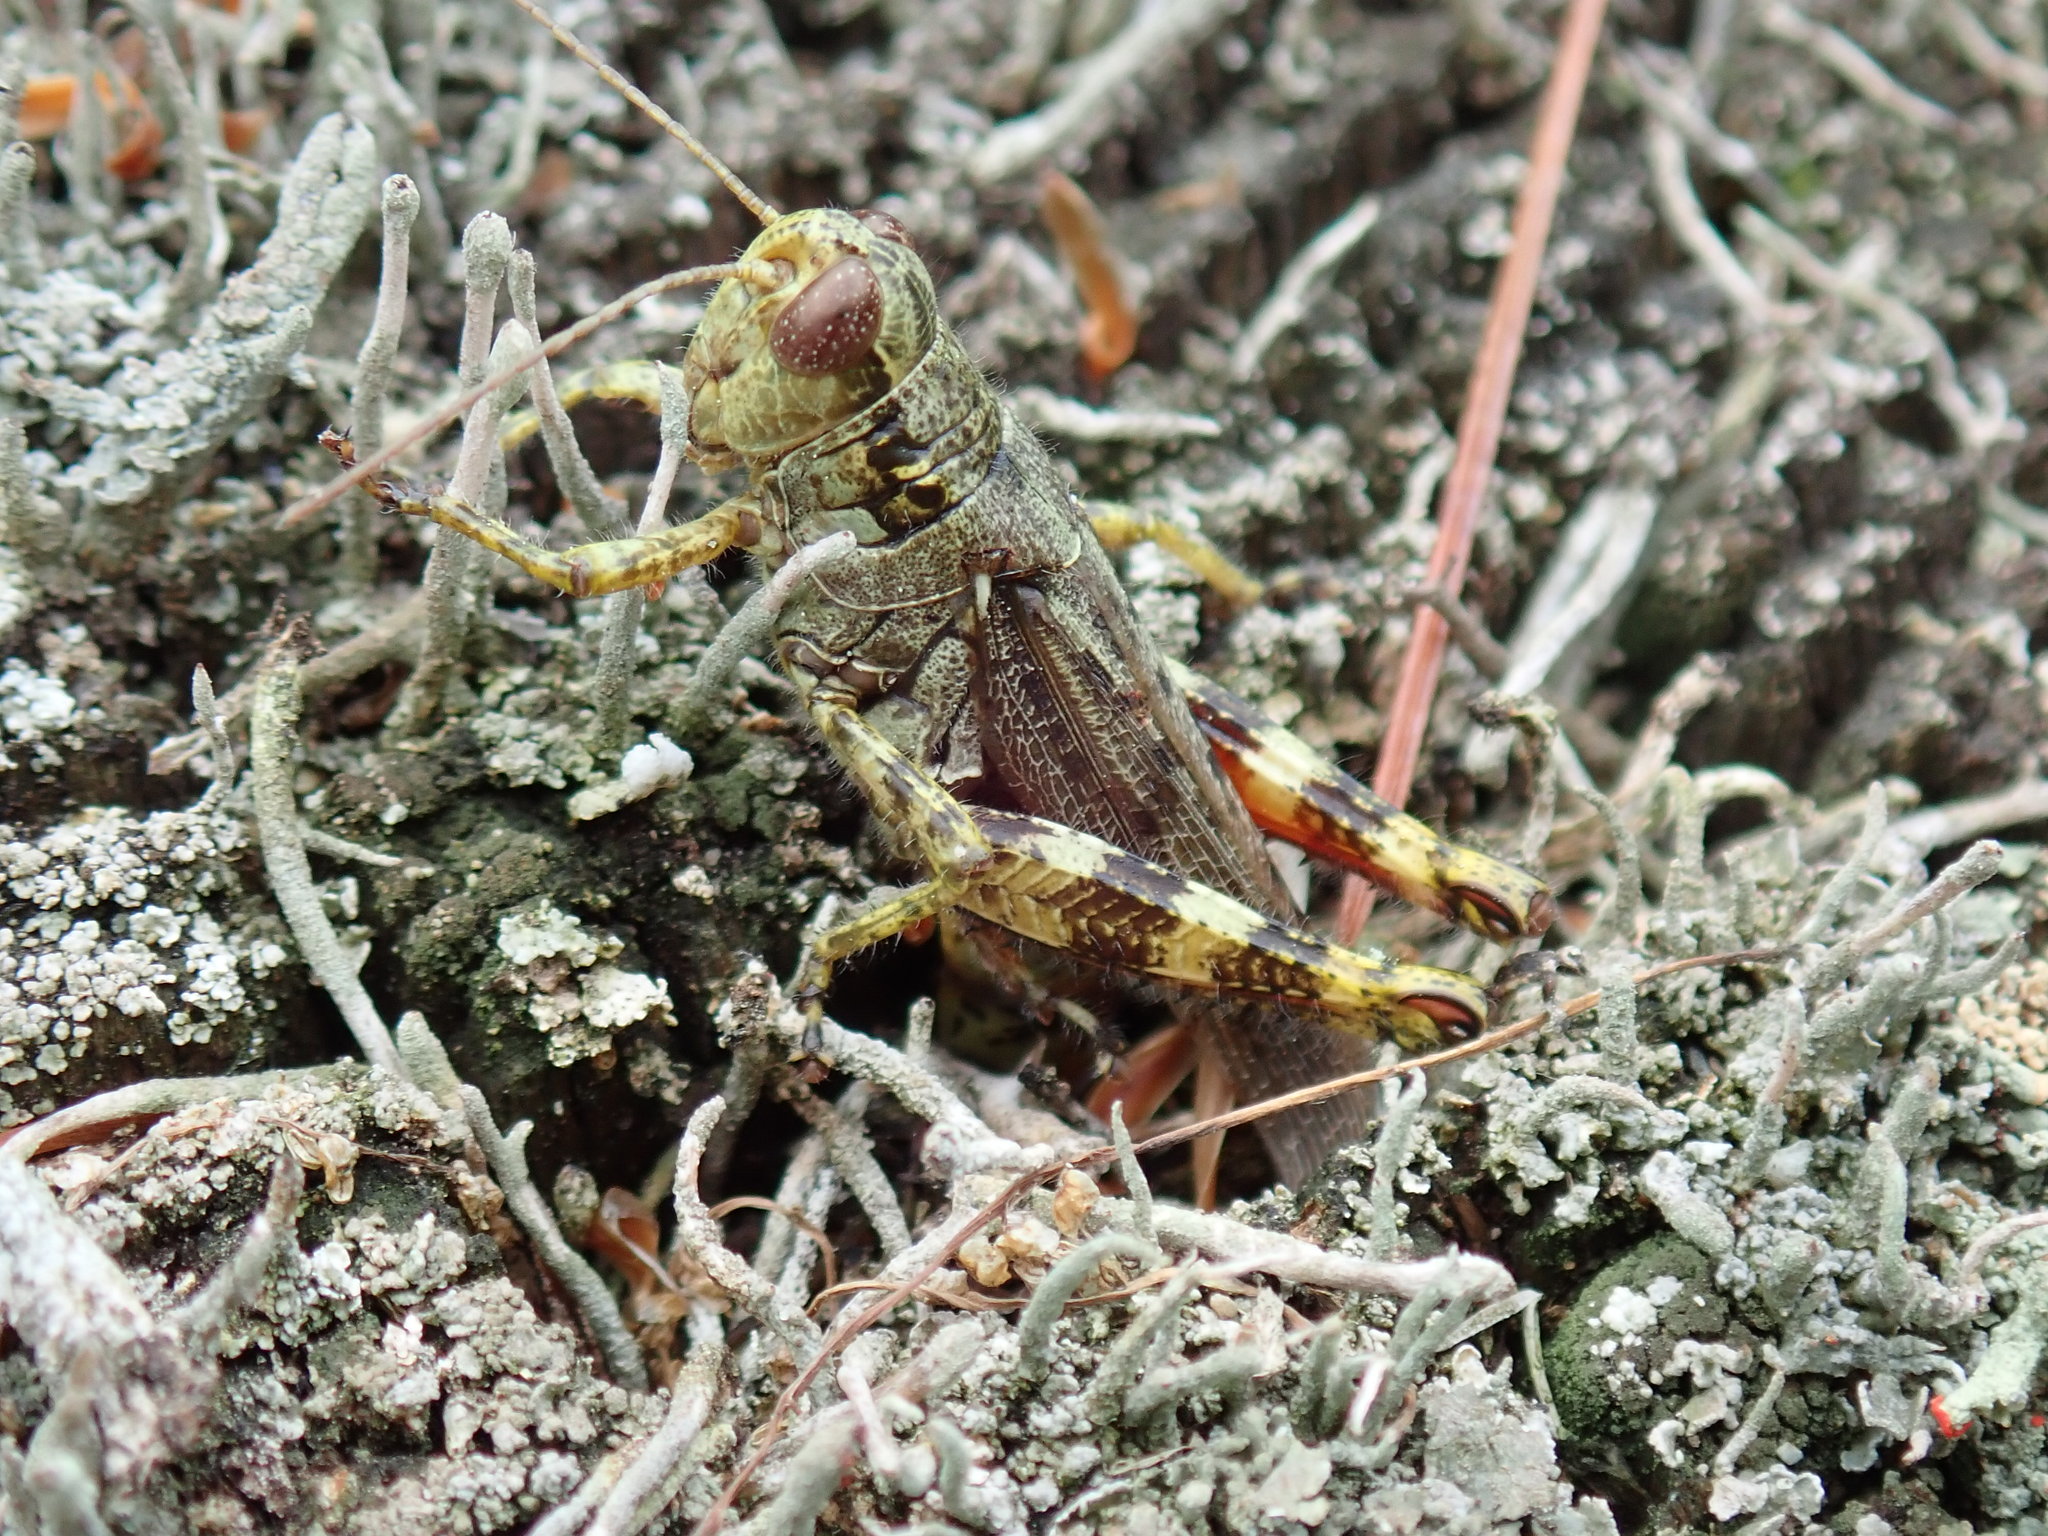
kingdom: Animalia
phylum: Arthropoda
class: Insecta
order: Orthoptera
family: Acrididae
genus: Melanoplus
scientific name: Melanoplus punctulatus
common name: Pine-tree spur-throat grasshopper
